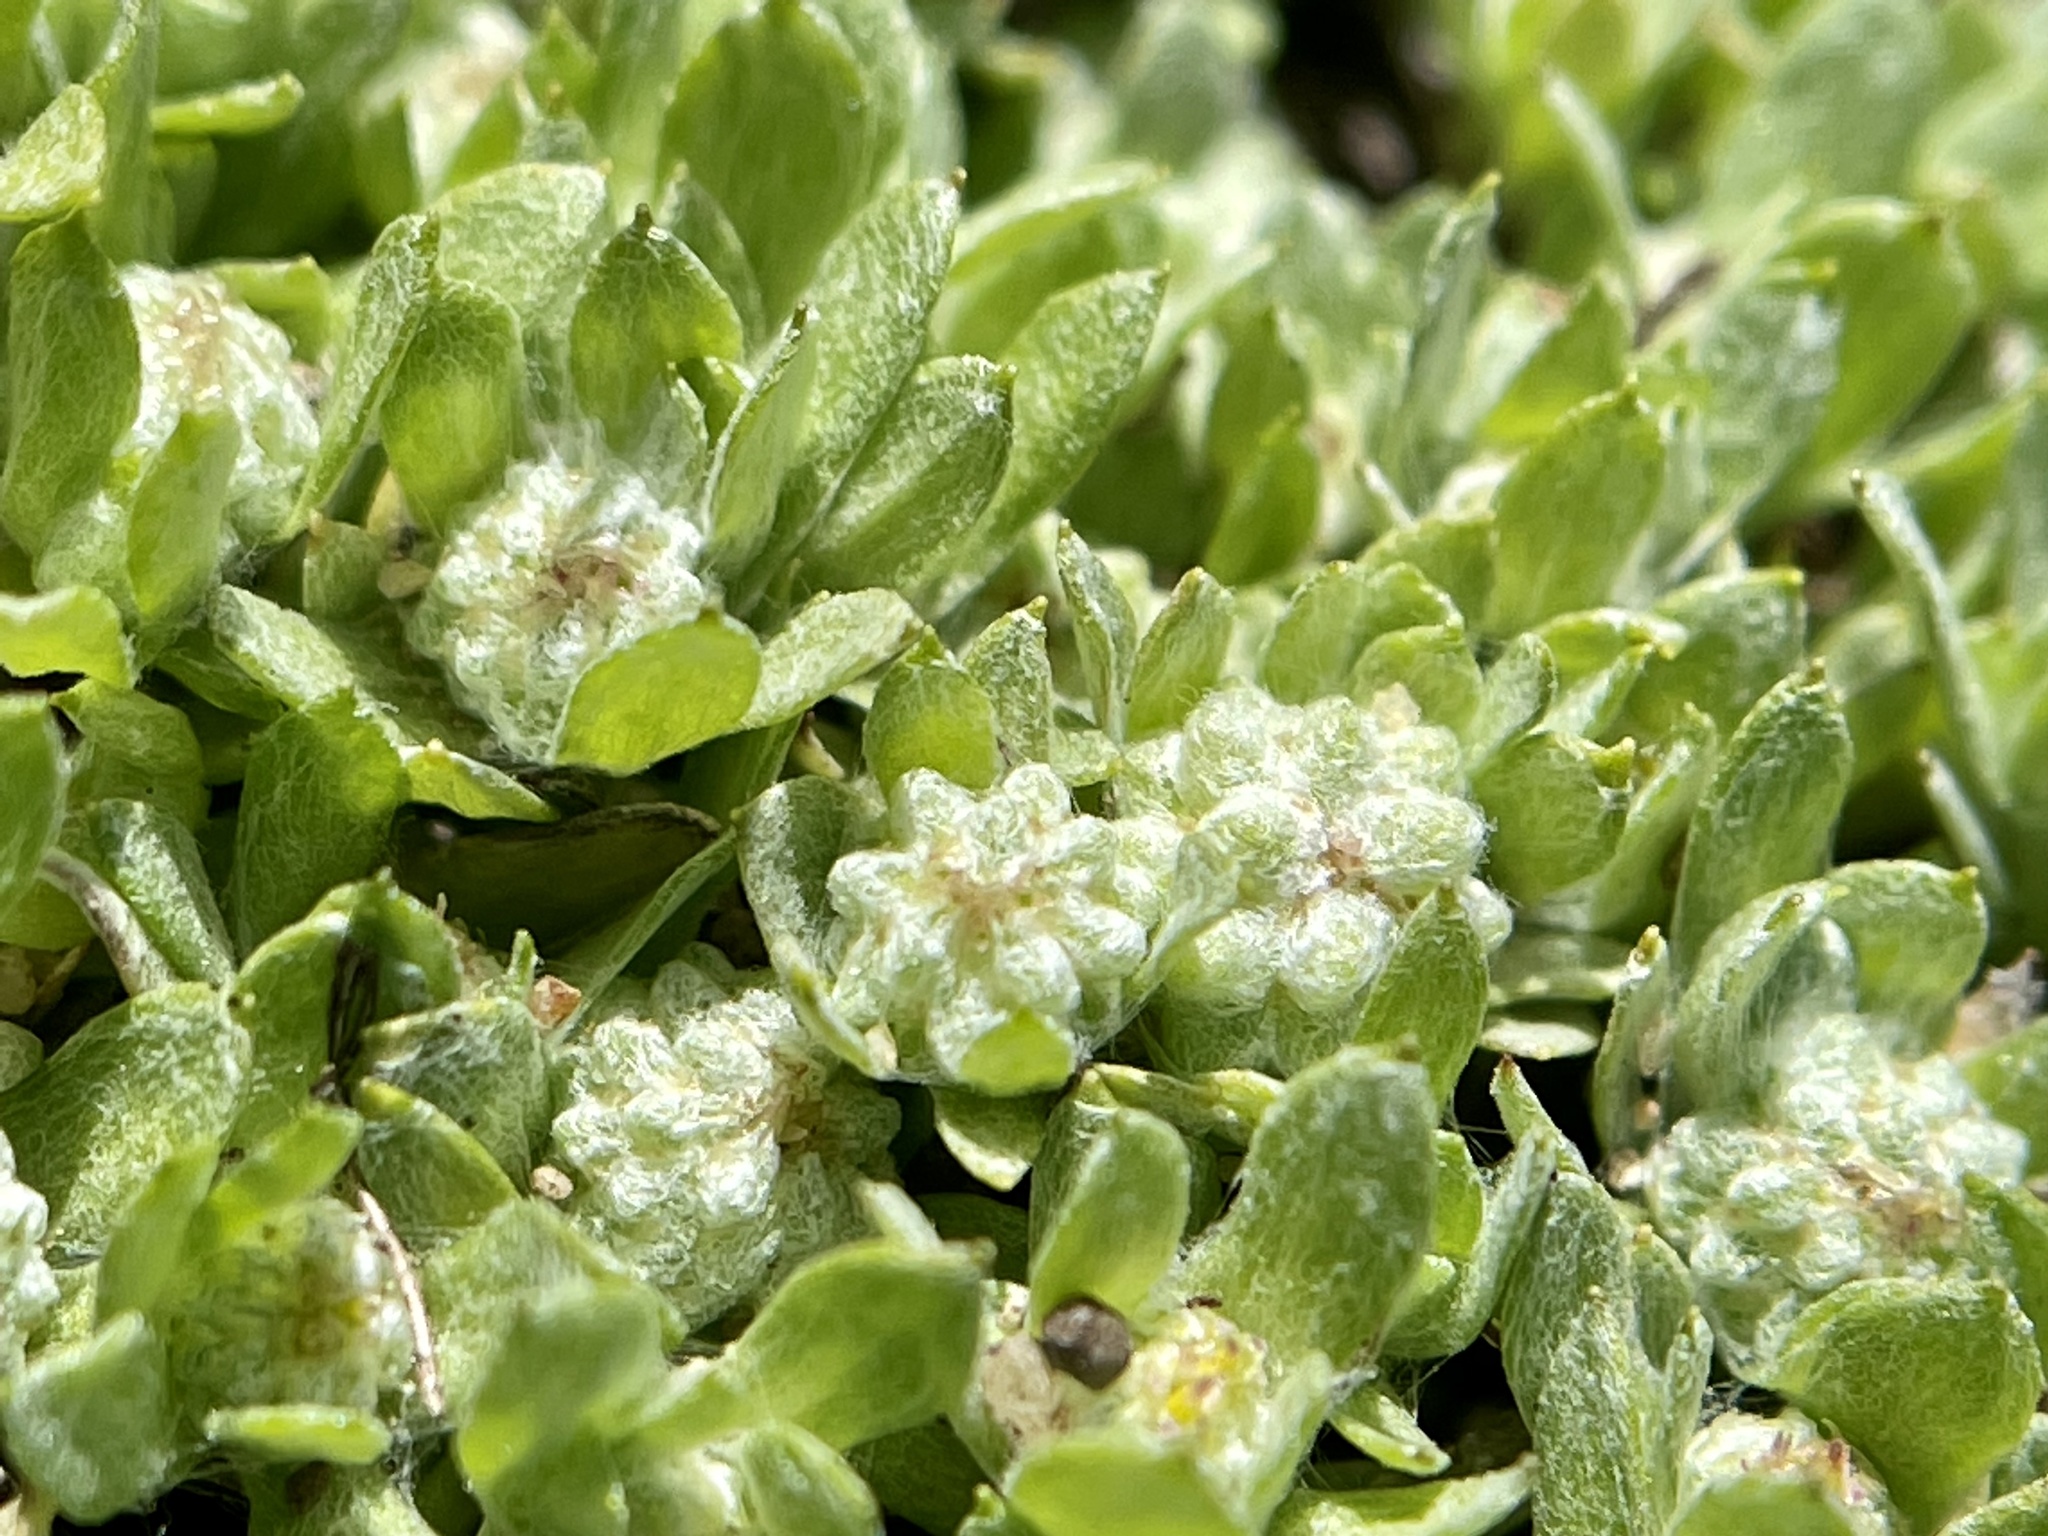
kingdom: Plantae
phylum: Tracheophyta
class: Magnoliopsida
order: Asterales
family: Asteraceae
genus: Psilocarphus
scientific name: Psilocarphus tenellus
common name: Slender woolly-marbles
